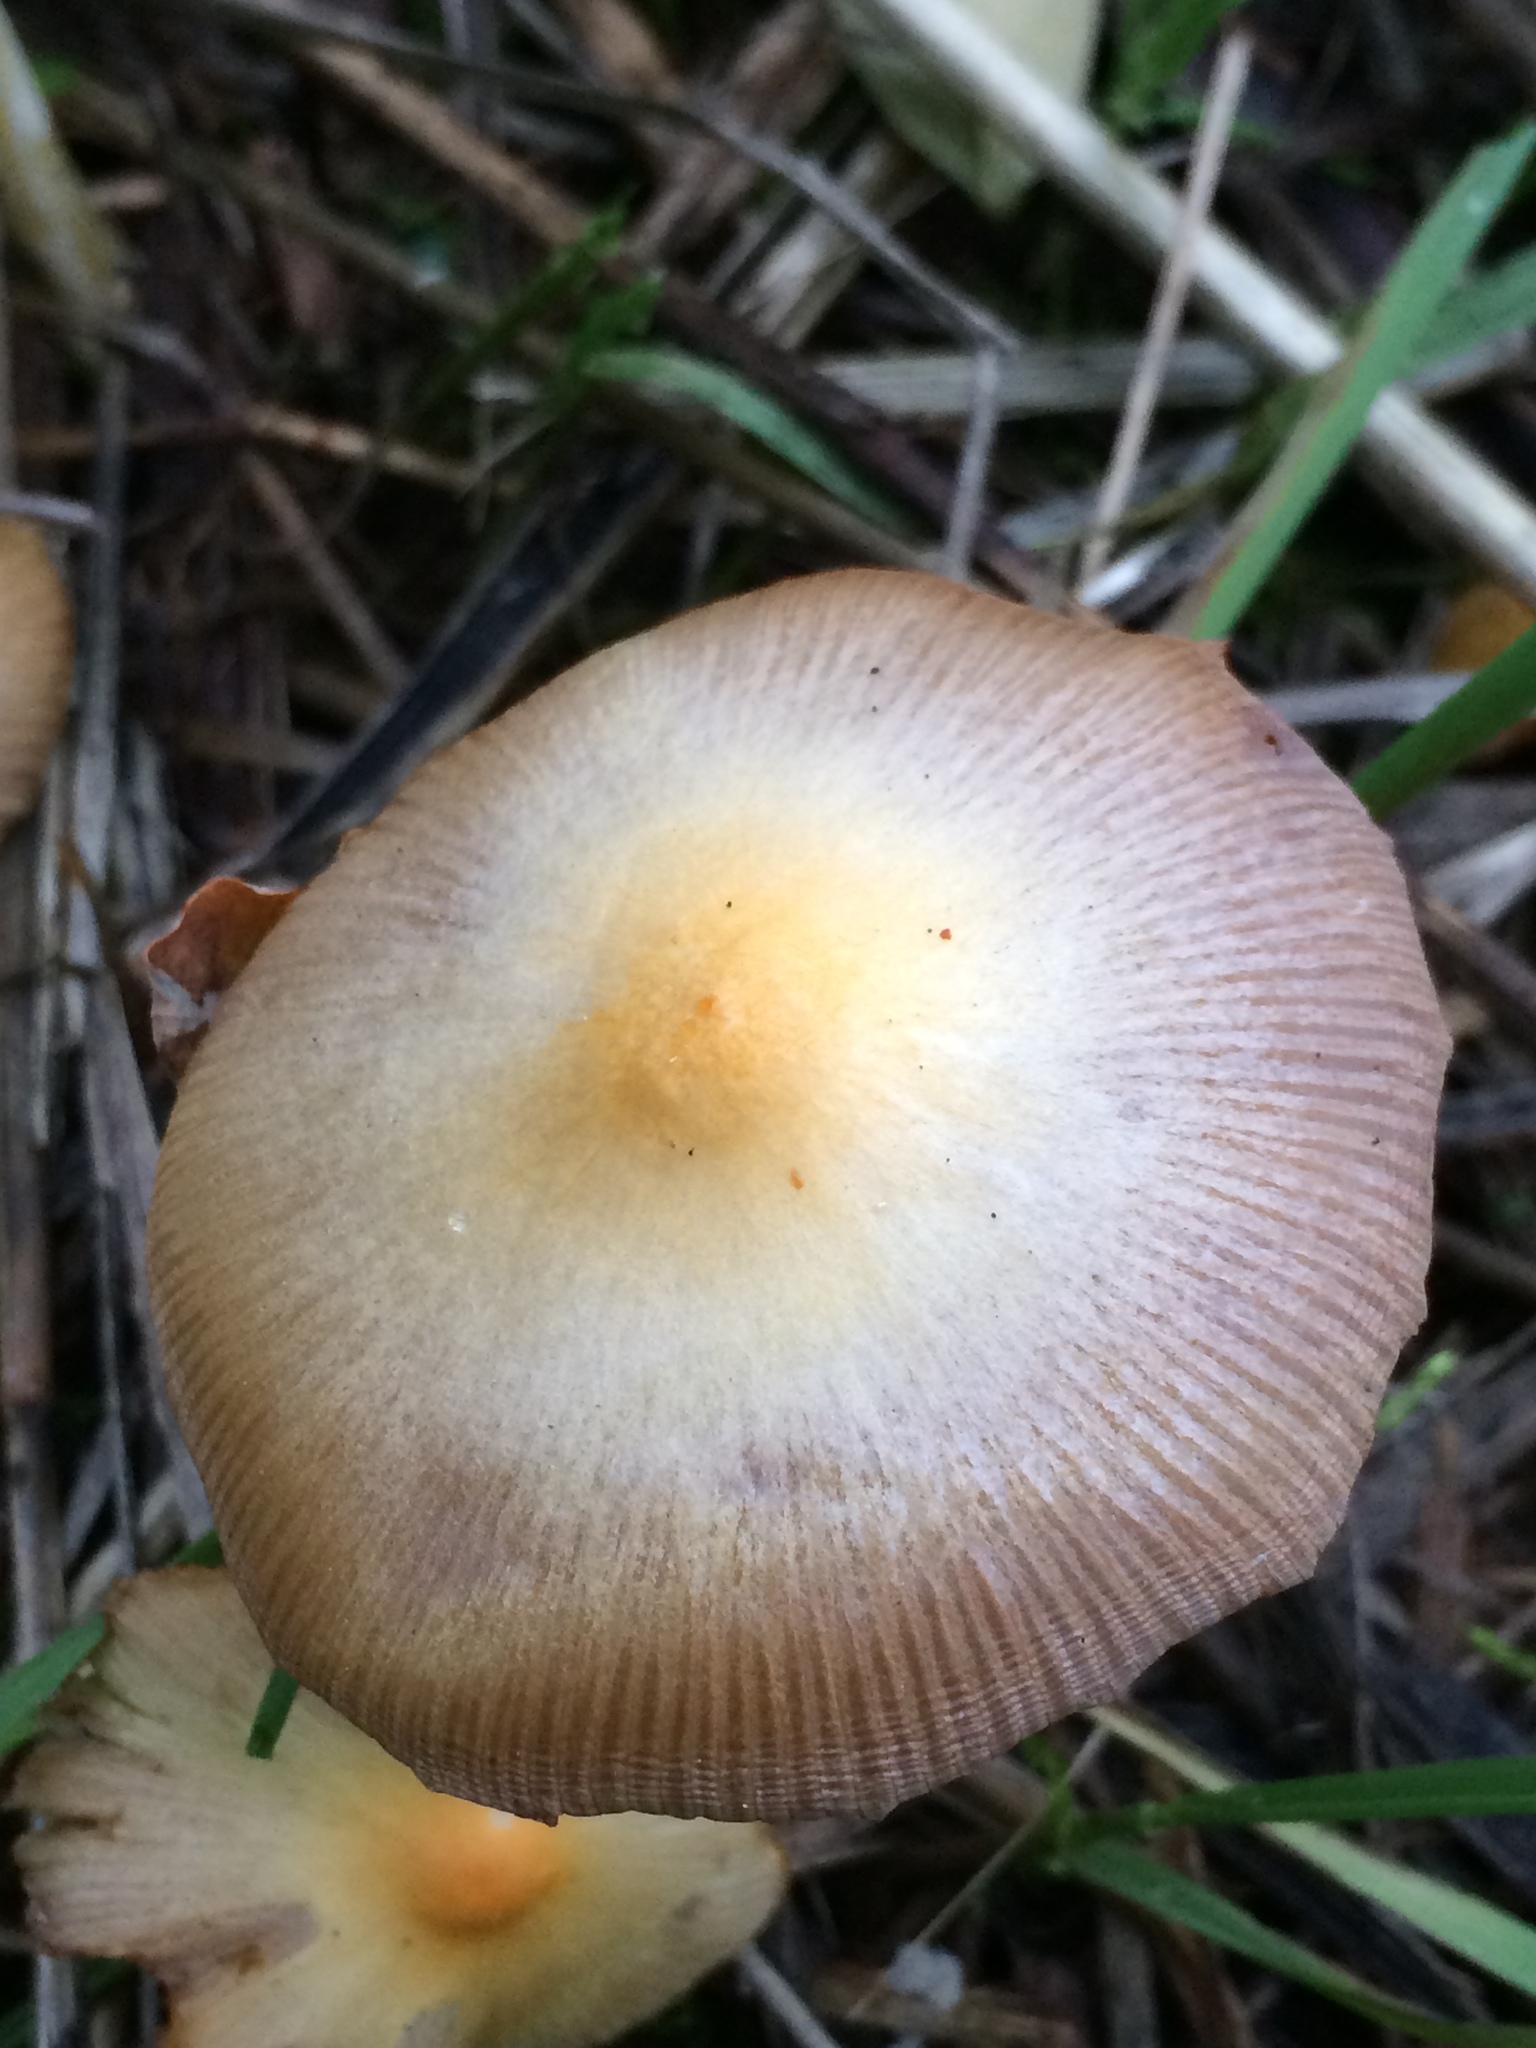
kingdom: Fungi
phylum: Basidiomycota
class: Agaricomycetes
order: Agaricales
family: Bolbitiaceae
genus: Bolbitius
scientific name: Bolbitius titubans
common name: Yellow fieldcap
